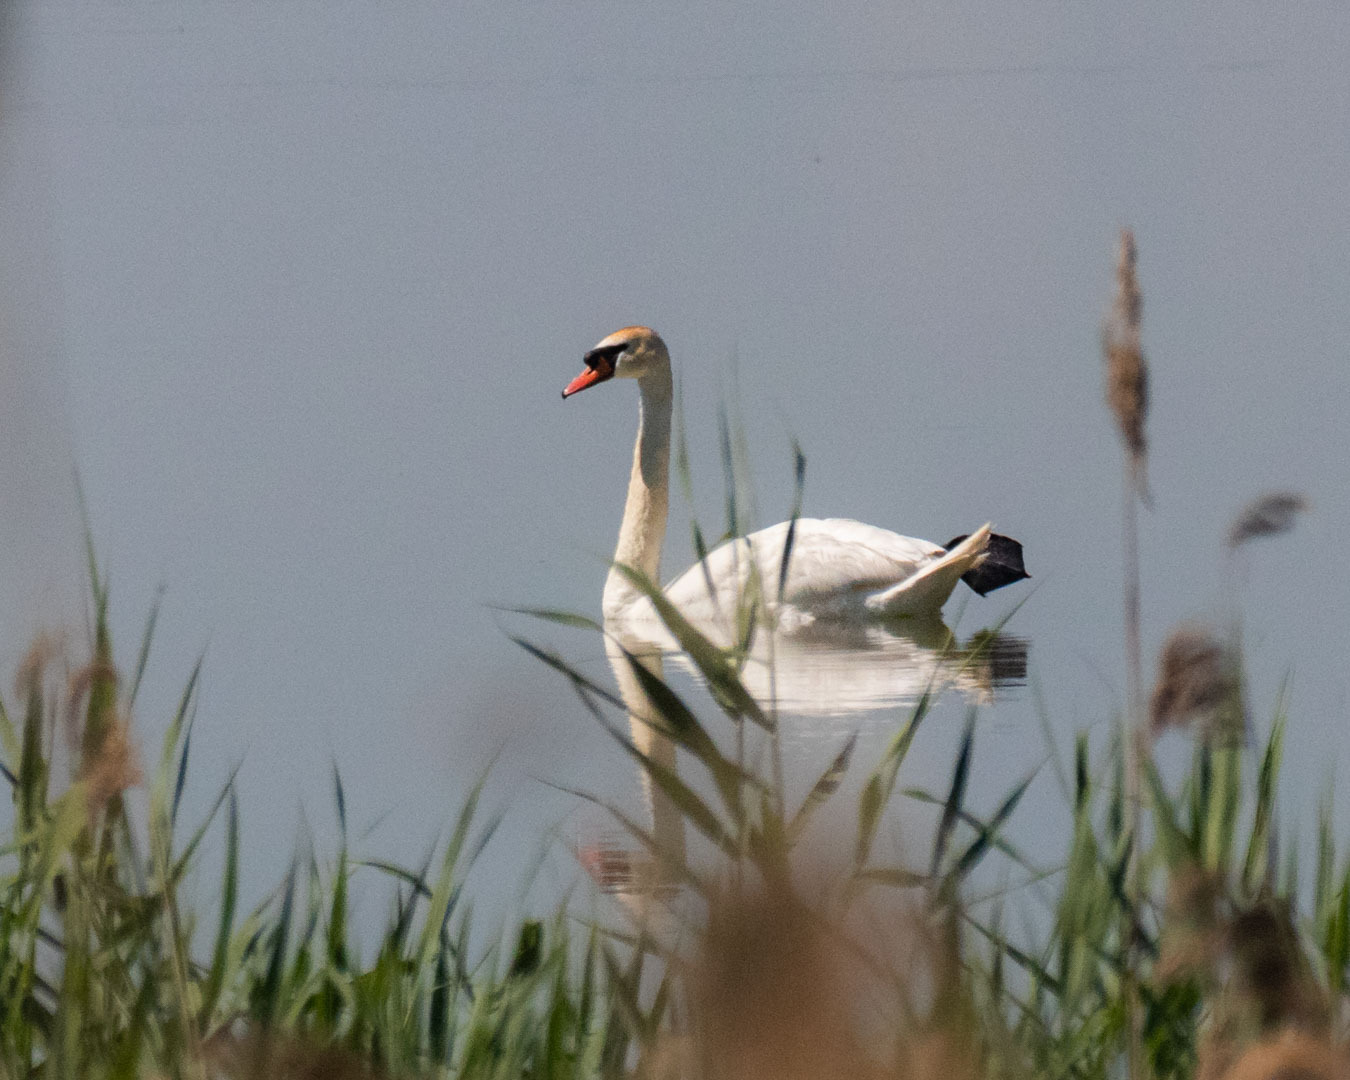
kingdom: Animalia
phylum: Chordata
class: Aves
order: Anseriformes
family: Anatidae
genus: Cygnus
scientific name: Cygnus olor
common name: Mute swan
